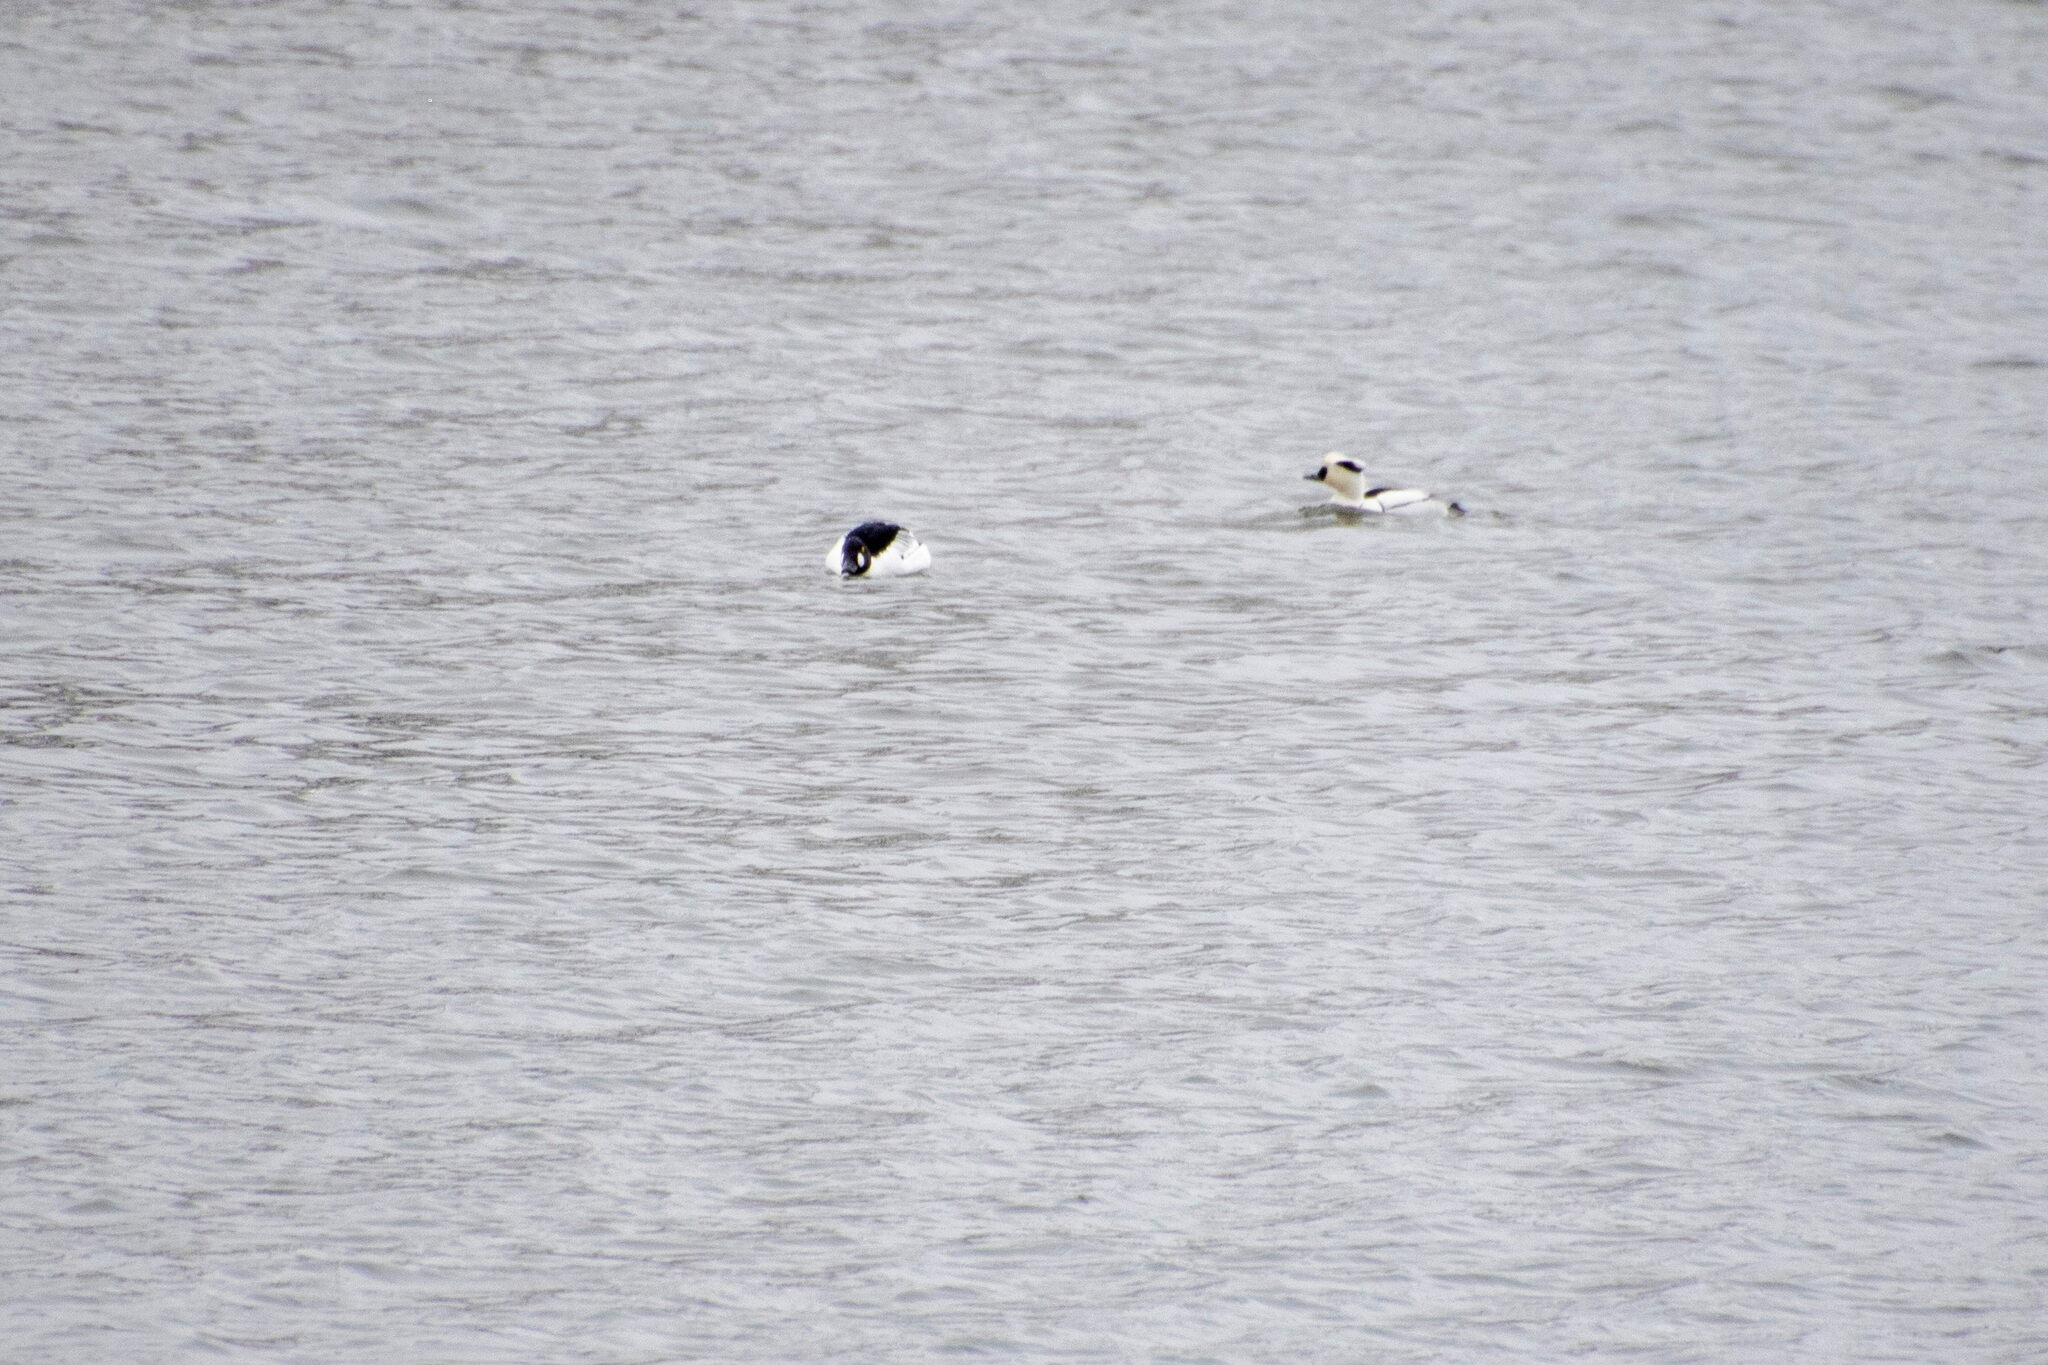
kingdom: Animalia
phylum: Chordata
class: Aves
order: Anseriformes
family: Anatidae
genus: Mergellus
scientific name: Mergellus albellus
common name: Smew
